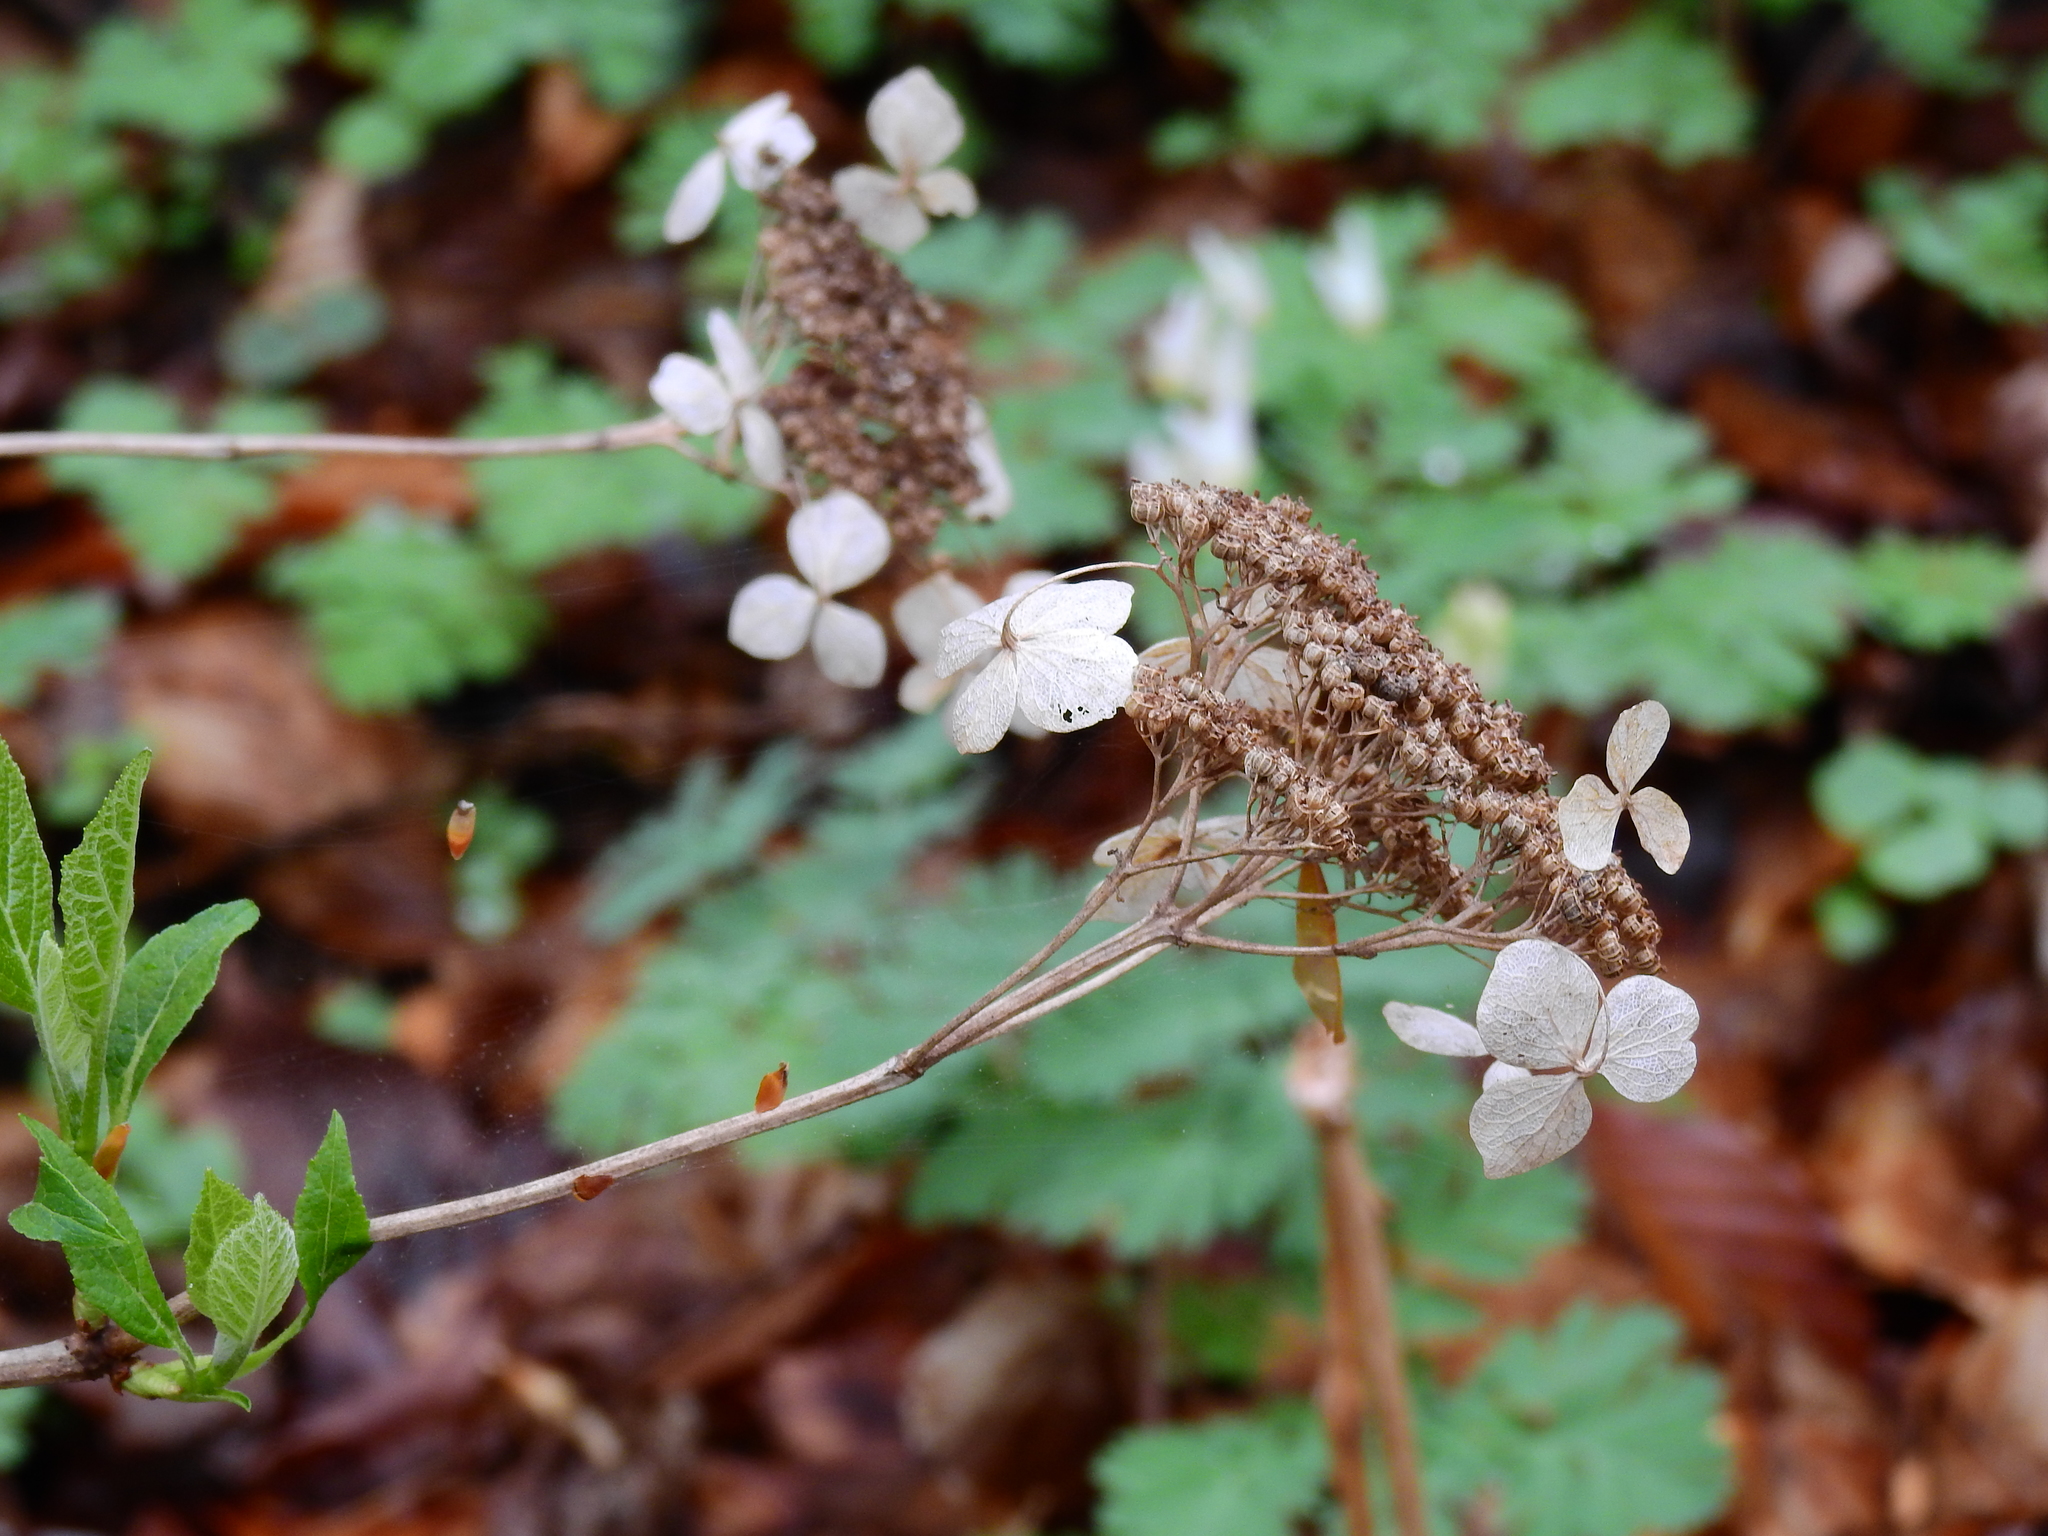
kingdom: Plantae
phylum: Tracheophyta
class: Magnoliopsida
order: Cornales
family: Hydrangeaceae
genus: Hydrangea
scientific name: Hydrangea arborescens
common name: Sevenbark
